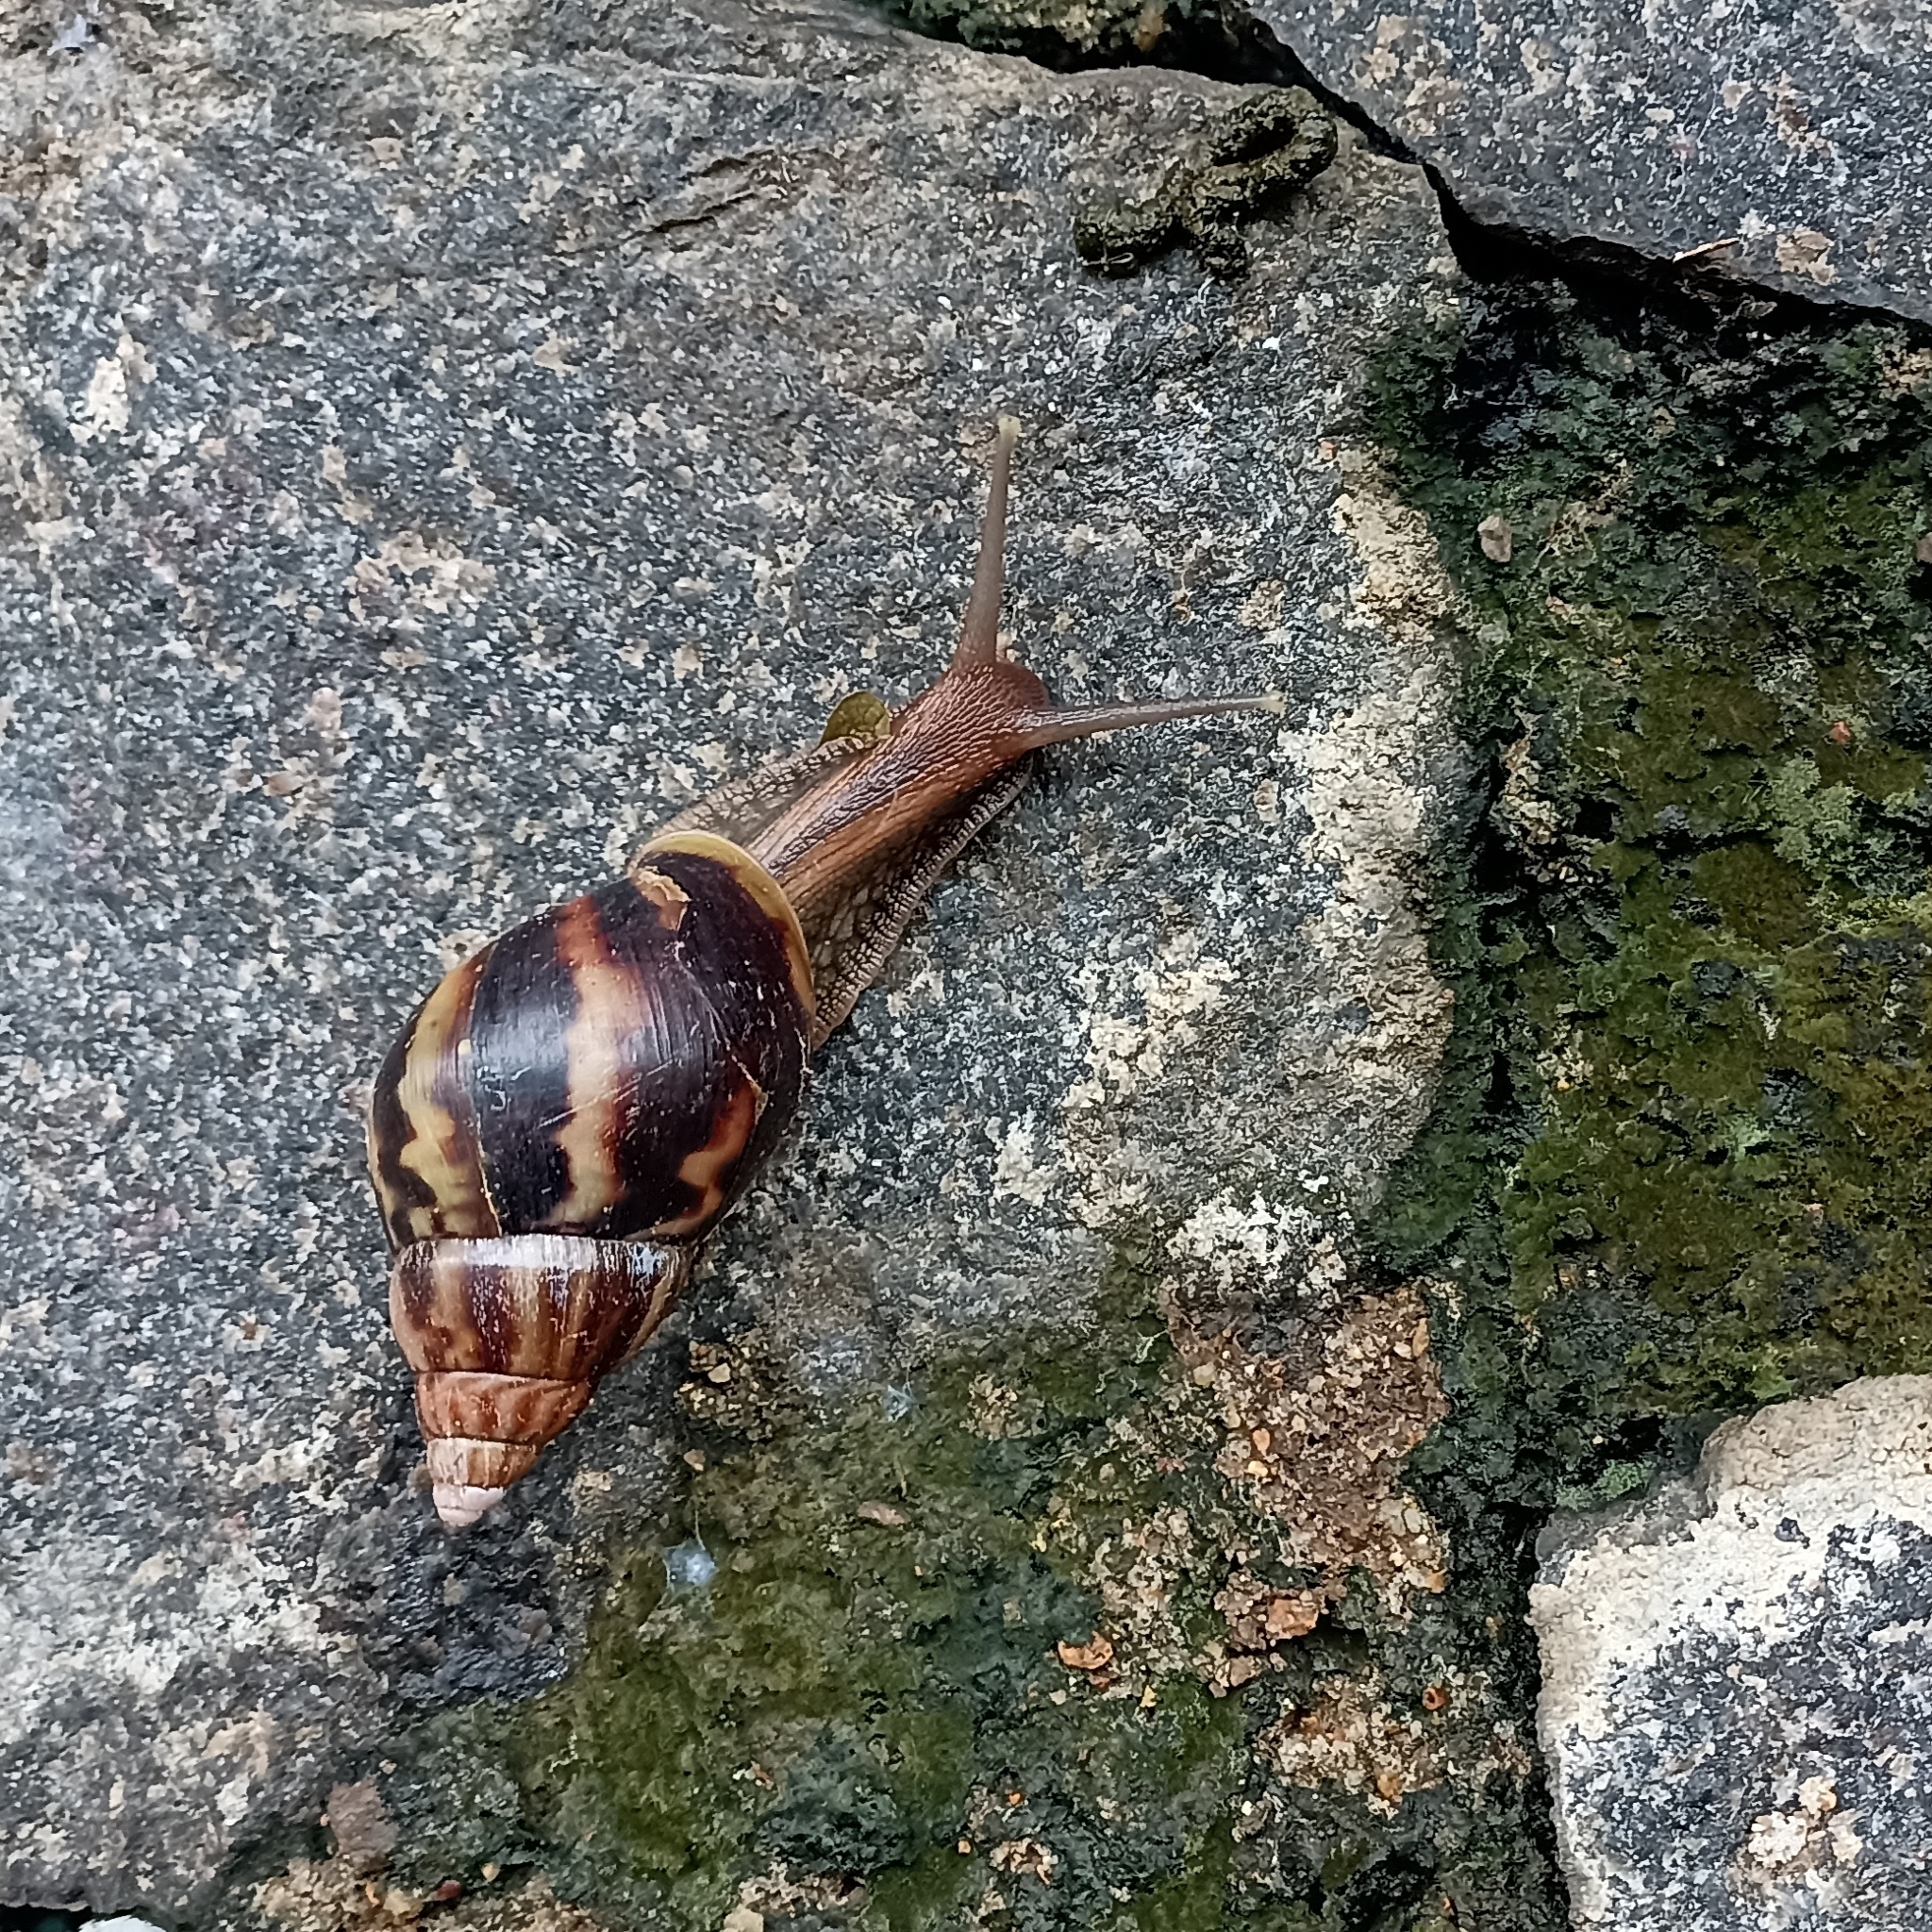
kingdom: Animalia
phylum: Mollusca
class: Gastropoda
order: Stylommatophora
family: Achatinidae
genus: Lissachatina
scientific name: Lissachatina fulica
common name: Giant african snail
